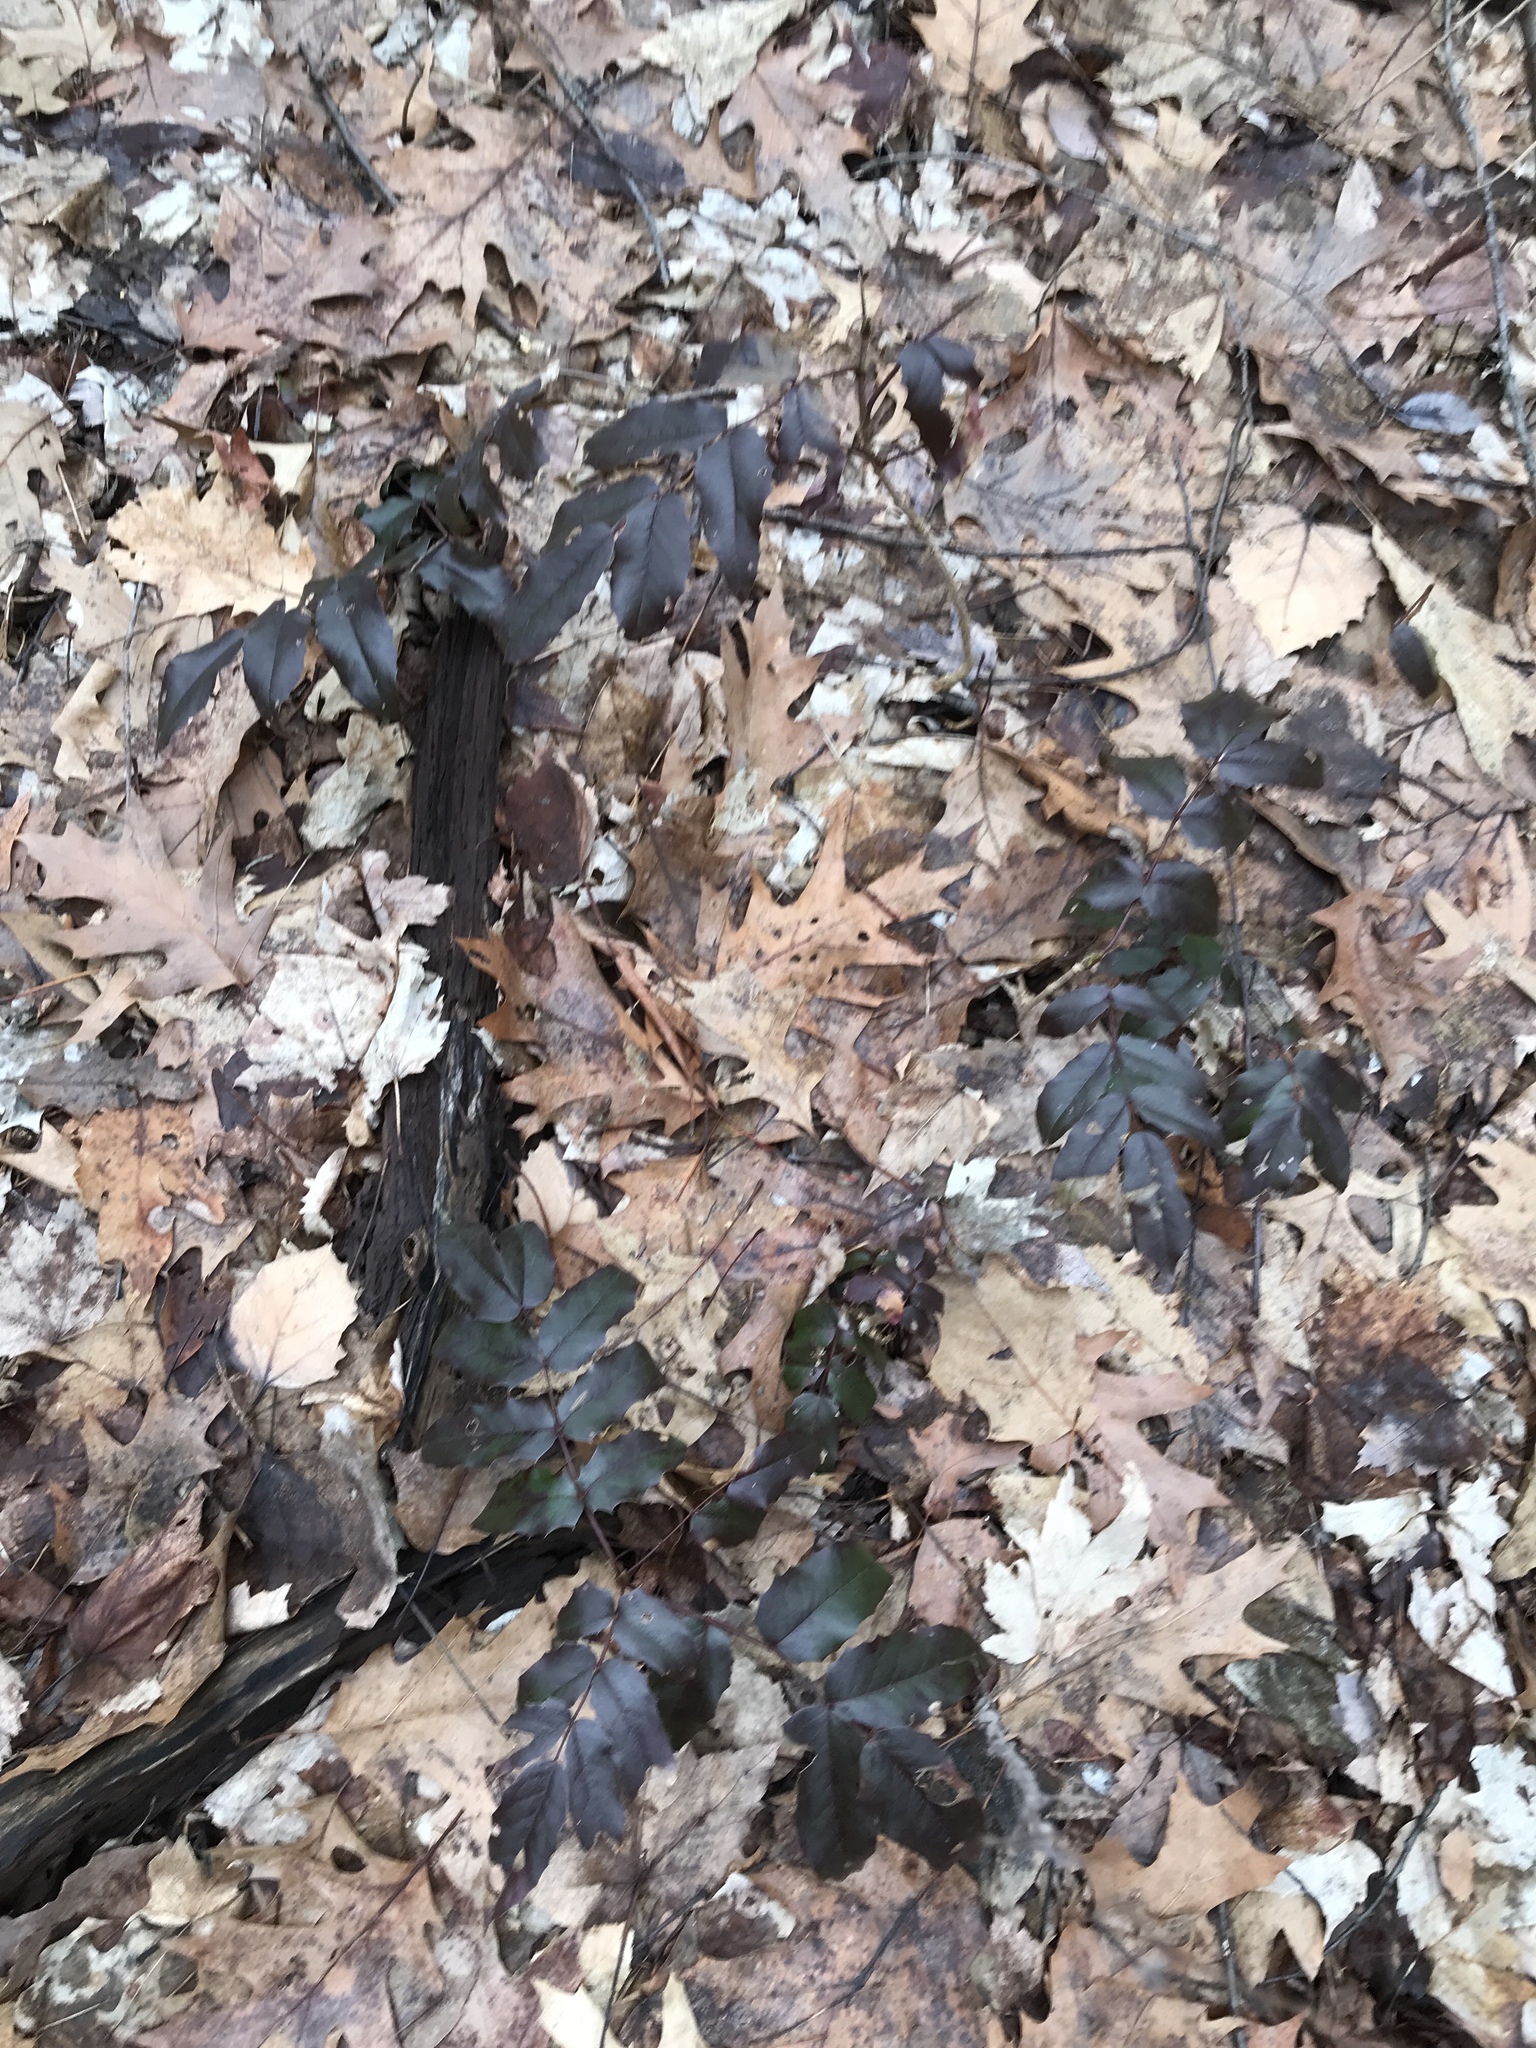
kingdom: Plantae
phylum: Tracheophyta
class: Magnoliopsida
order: Ranunculales
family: Berberidaceae
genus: Mahonia
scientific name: Mahonia aquifolium
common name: Oregon-grape
